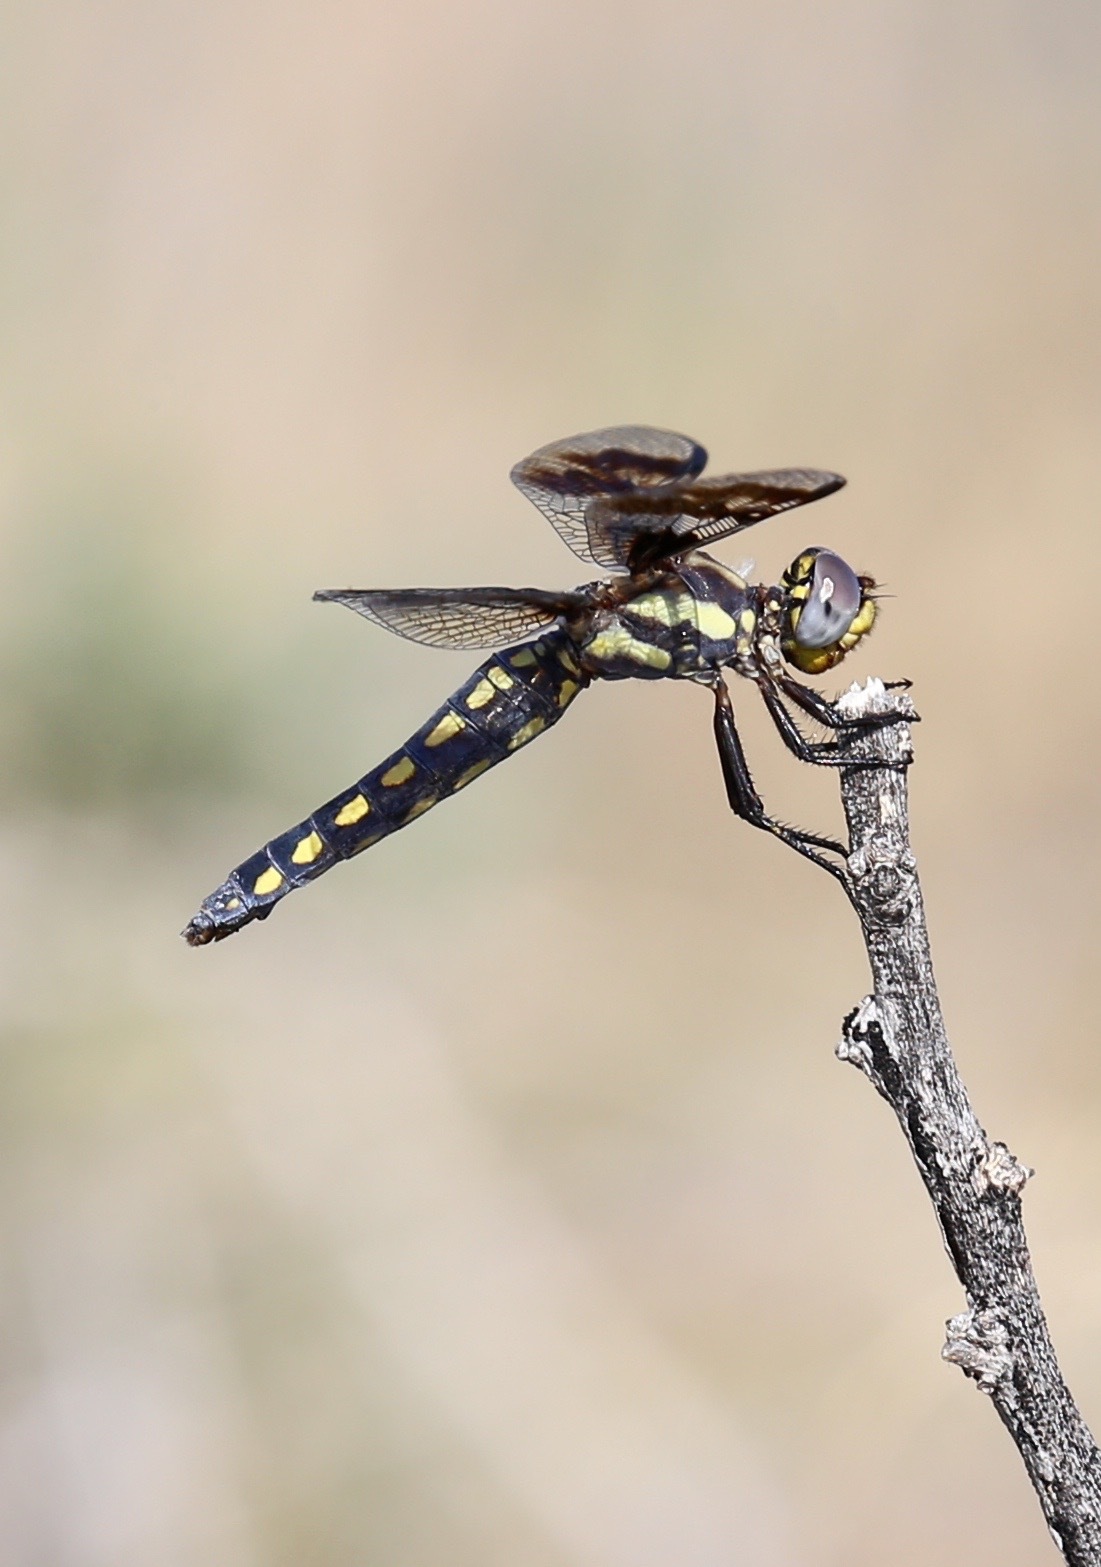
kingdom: Animalia
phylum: Arthropoda
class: Insecta
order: Odonata
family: Libellulidae
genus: Plathemis
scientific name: Plathemis subornata
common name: Desert whitetail
